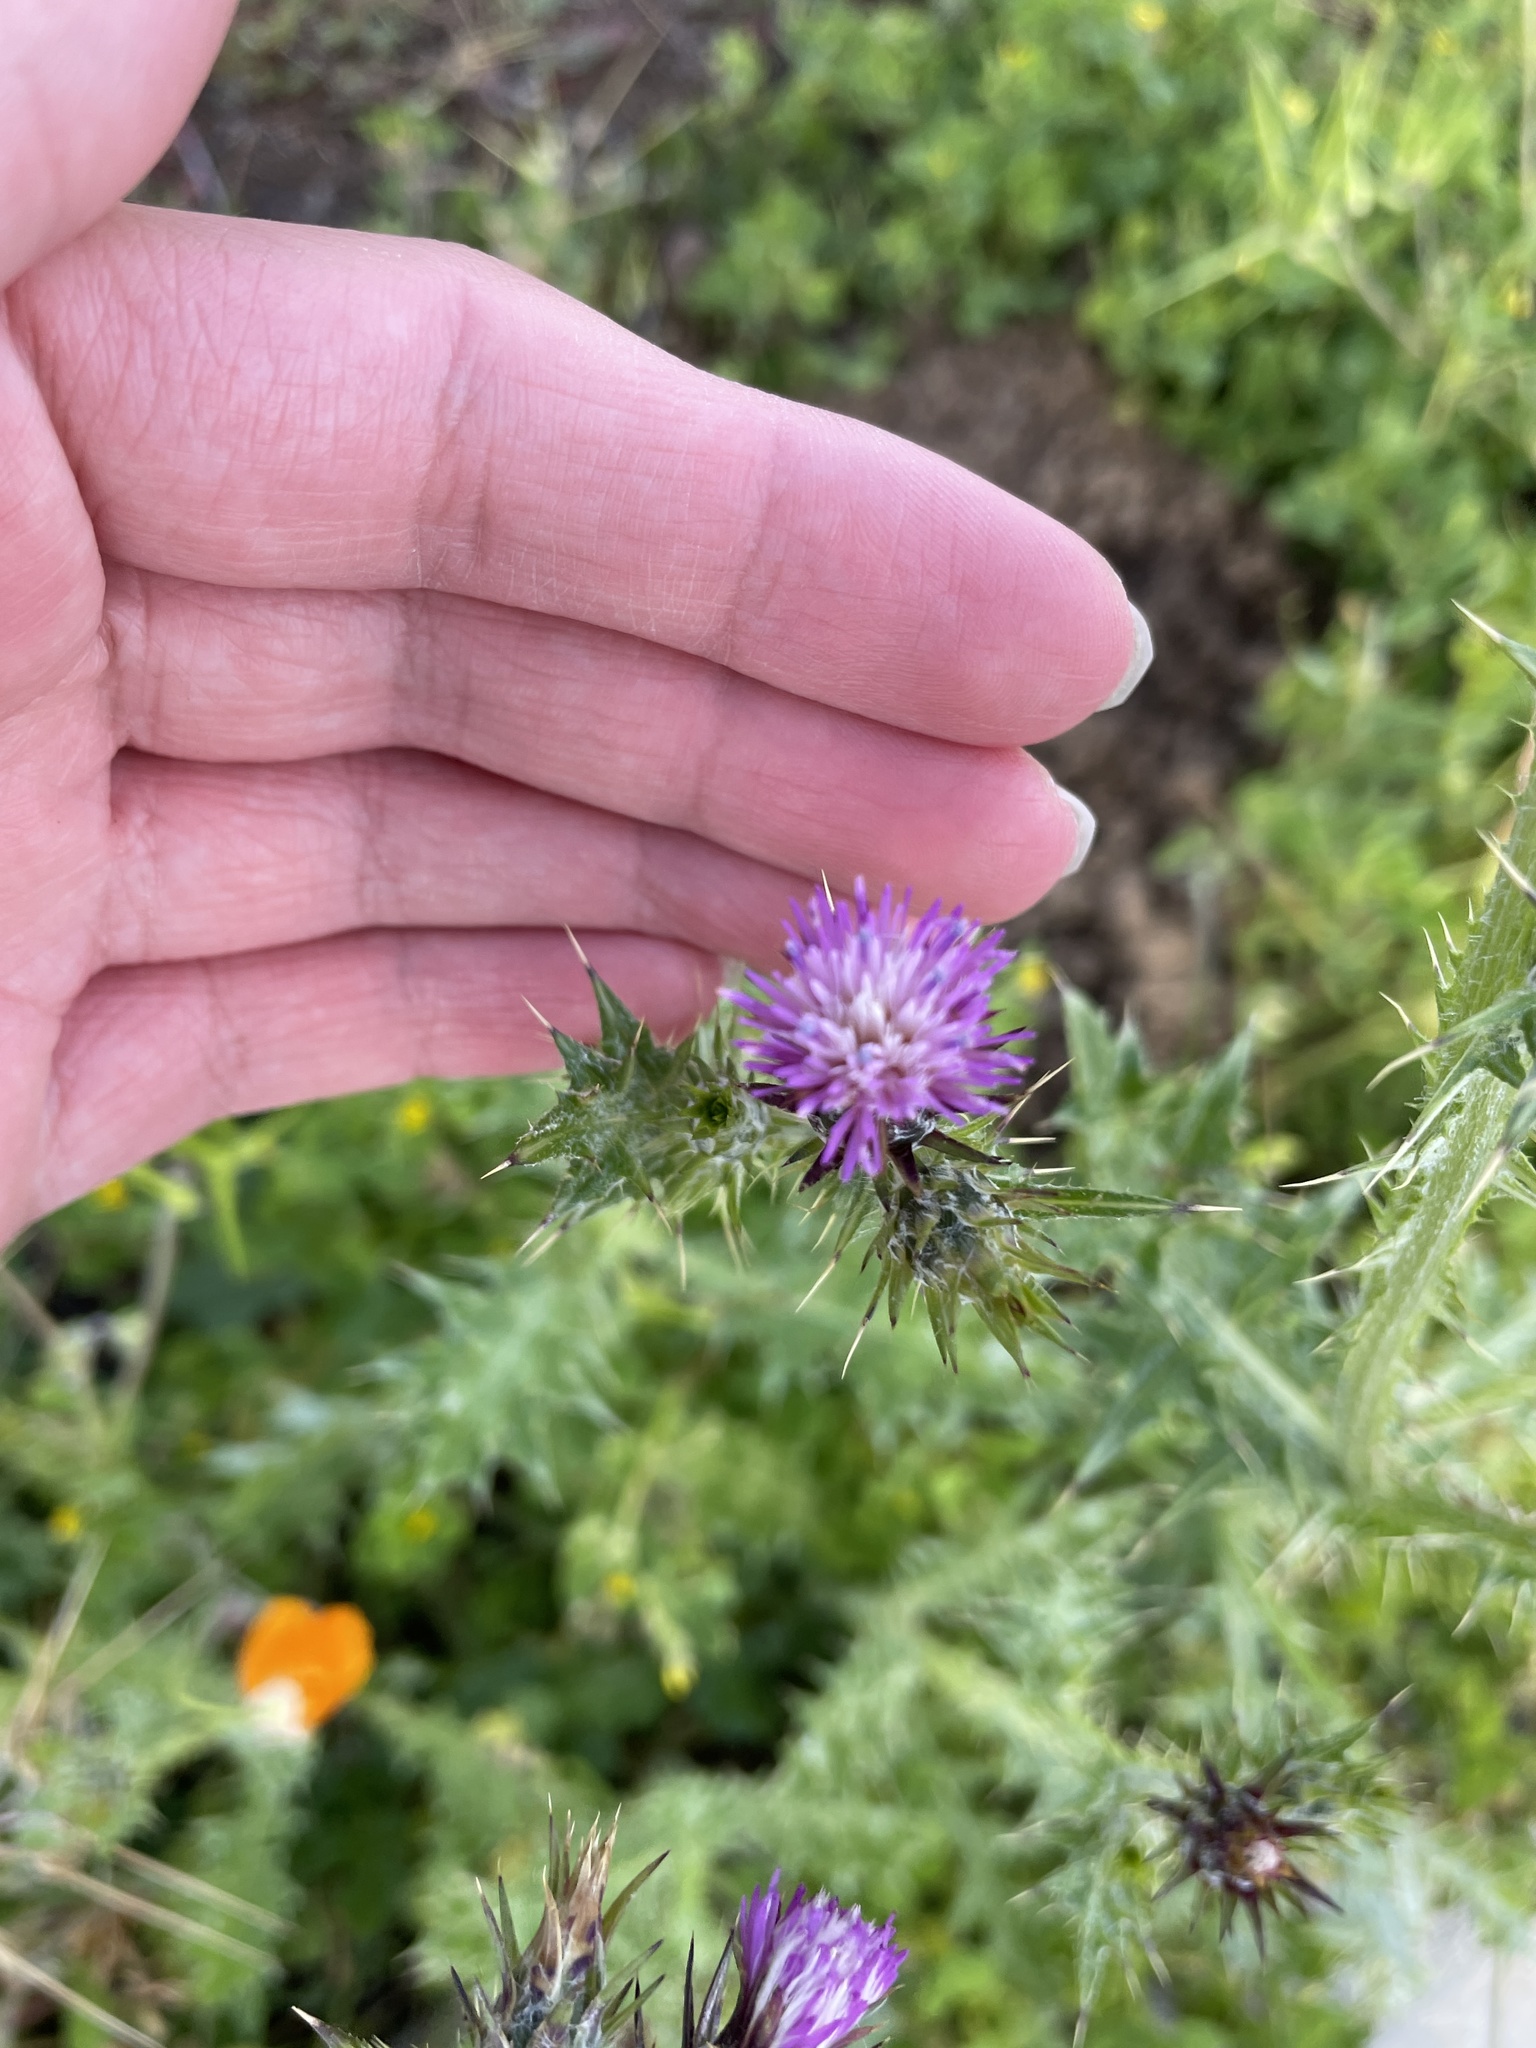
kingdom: Plantae
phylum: Tracheophyta
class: Magnoliopsida
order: Asterales
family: Asteraceae
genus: Carduus
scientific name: Carduus pycnocephalus
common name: Plymouth thistle
